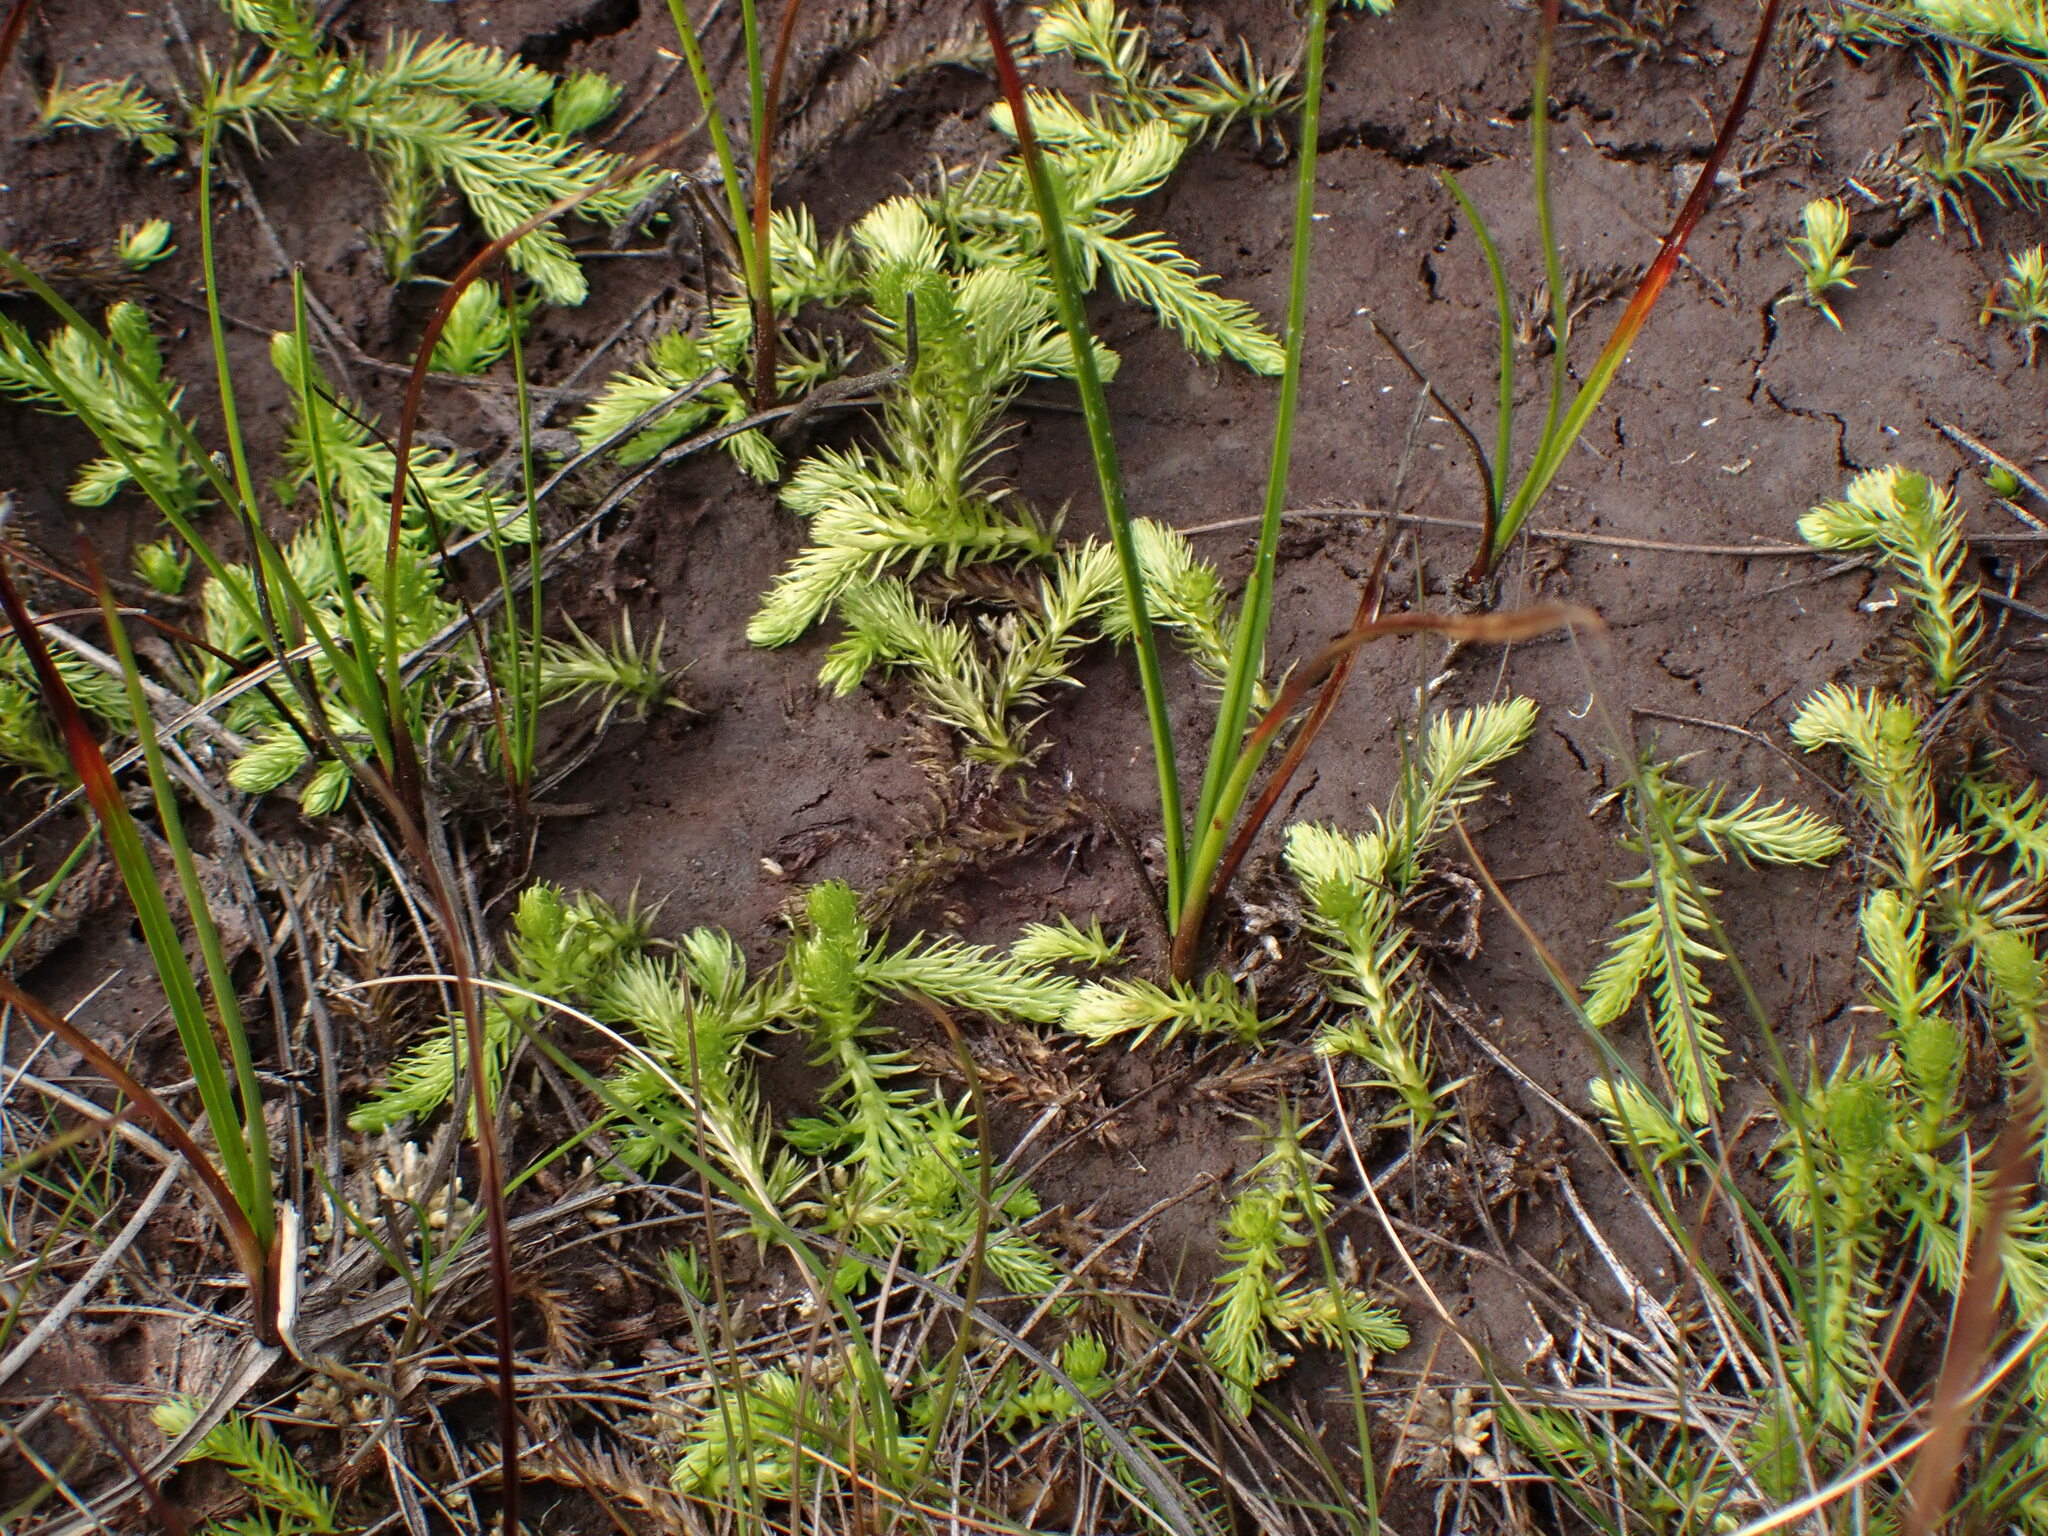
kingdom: Plantae
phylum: Tracheophyta
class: Lycopodiopsida
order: Lycopodiales
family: Lycopodiaceae
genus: Lycopodiella
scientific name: Lycopodiella inundata
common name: Marsh clubmoss
